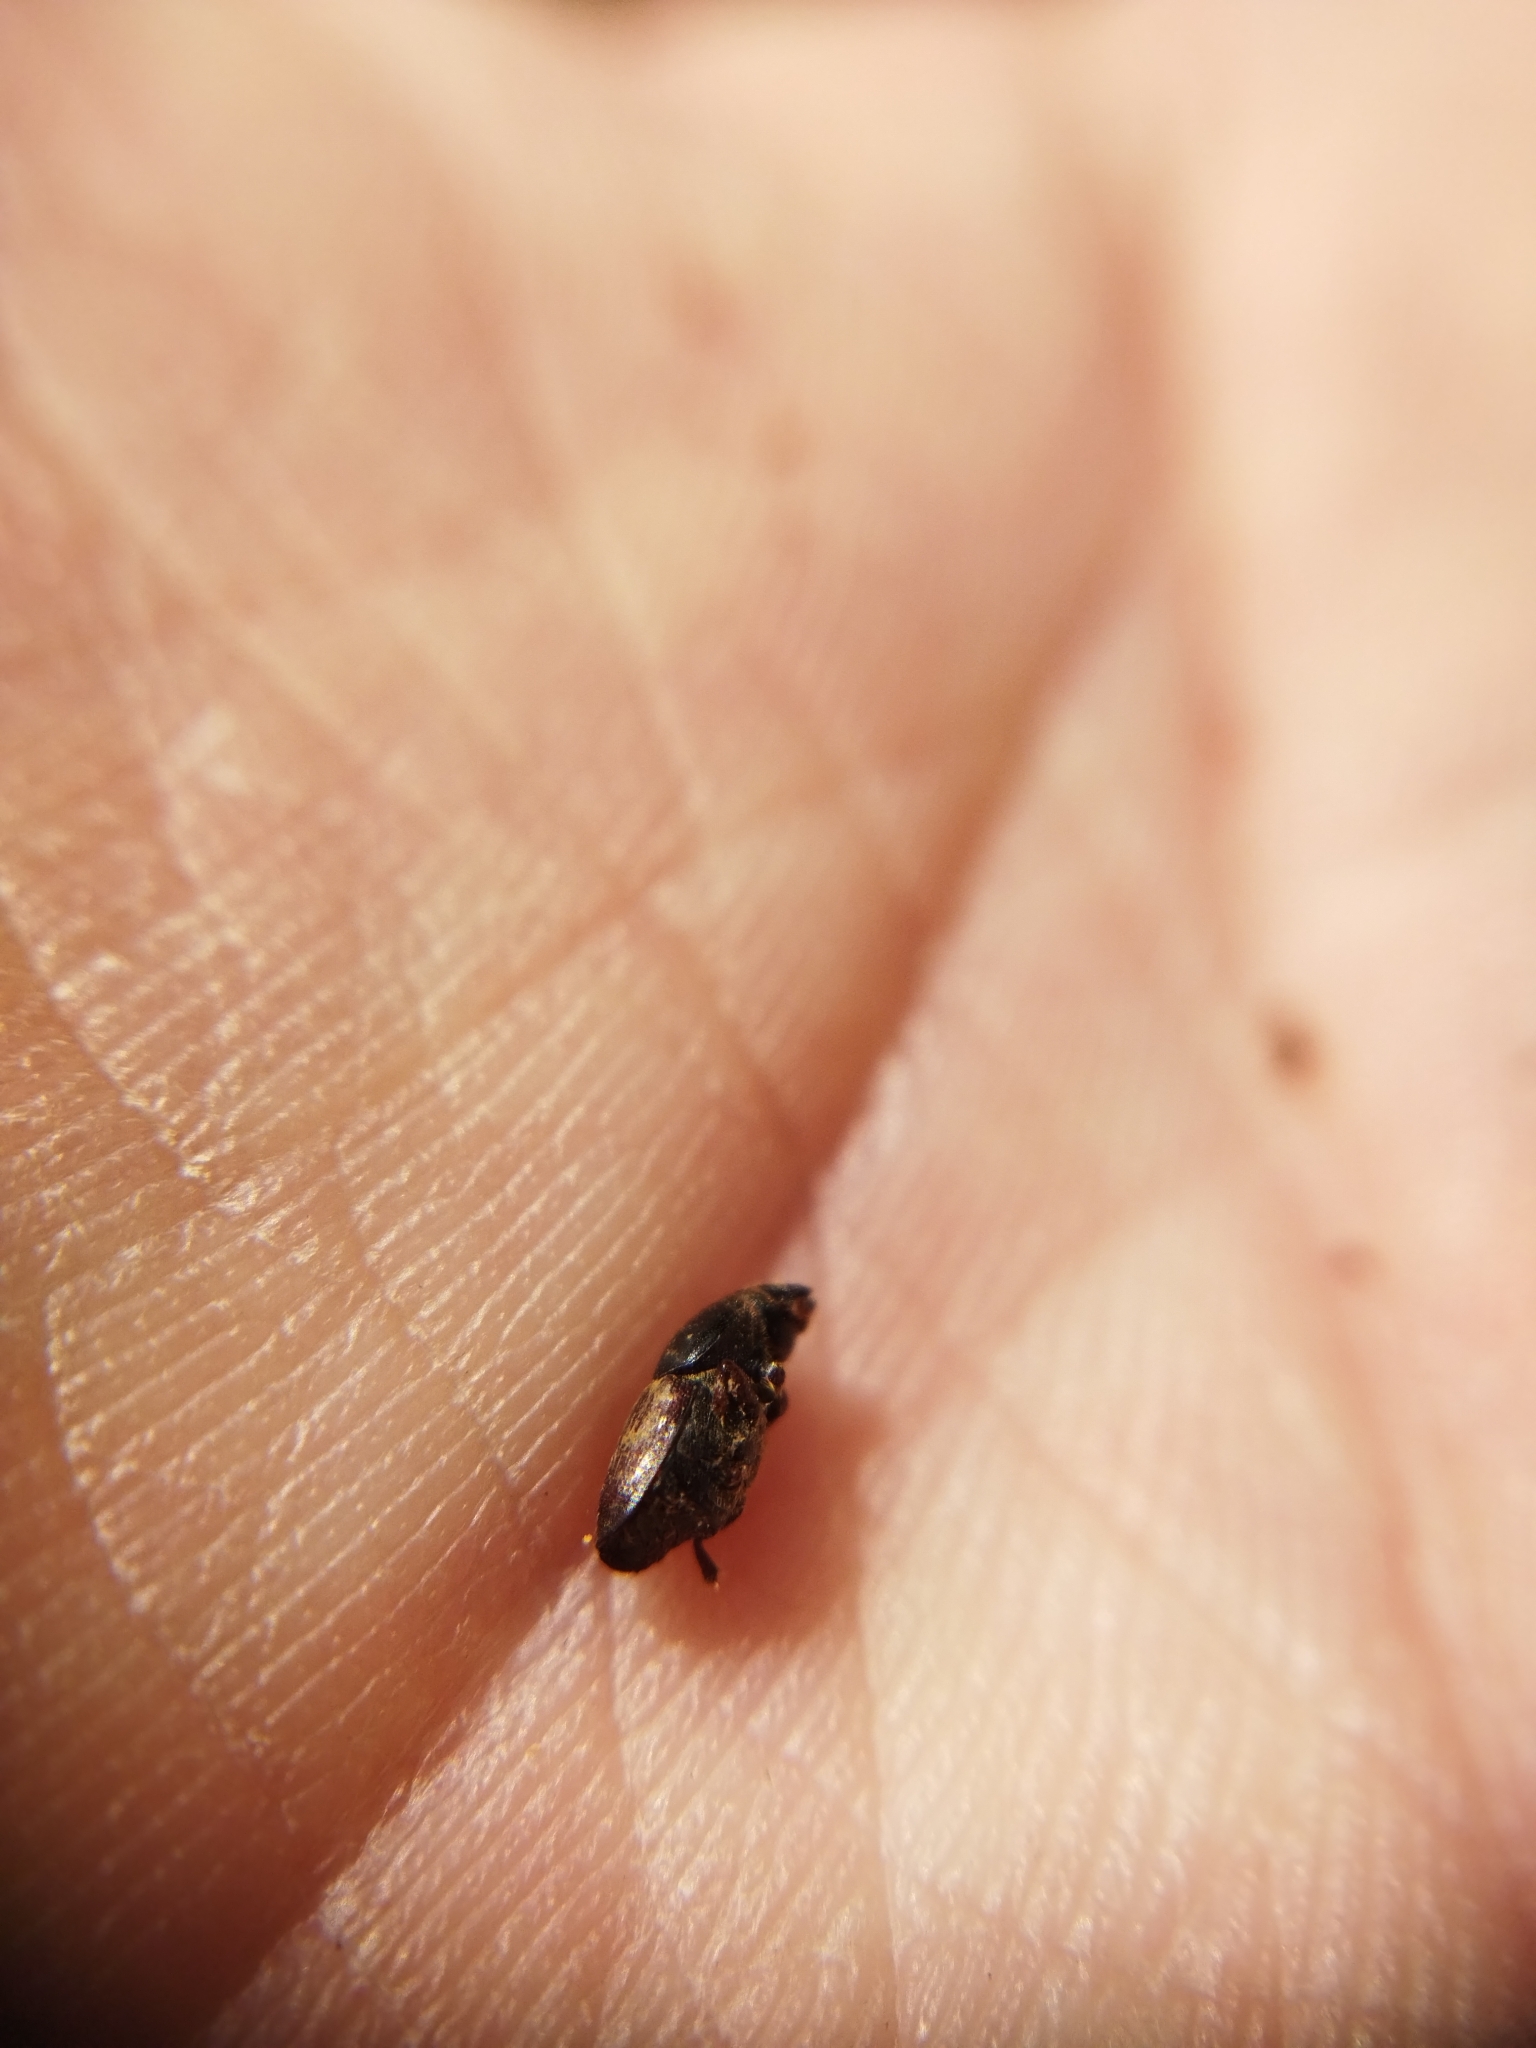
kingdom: Animalia
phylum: Arthropoda
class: Insecta
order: Coleoptera
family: Curculionidae
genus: Scolytus
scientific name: Scolytus multistriatus
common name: European elm bark beetle
